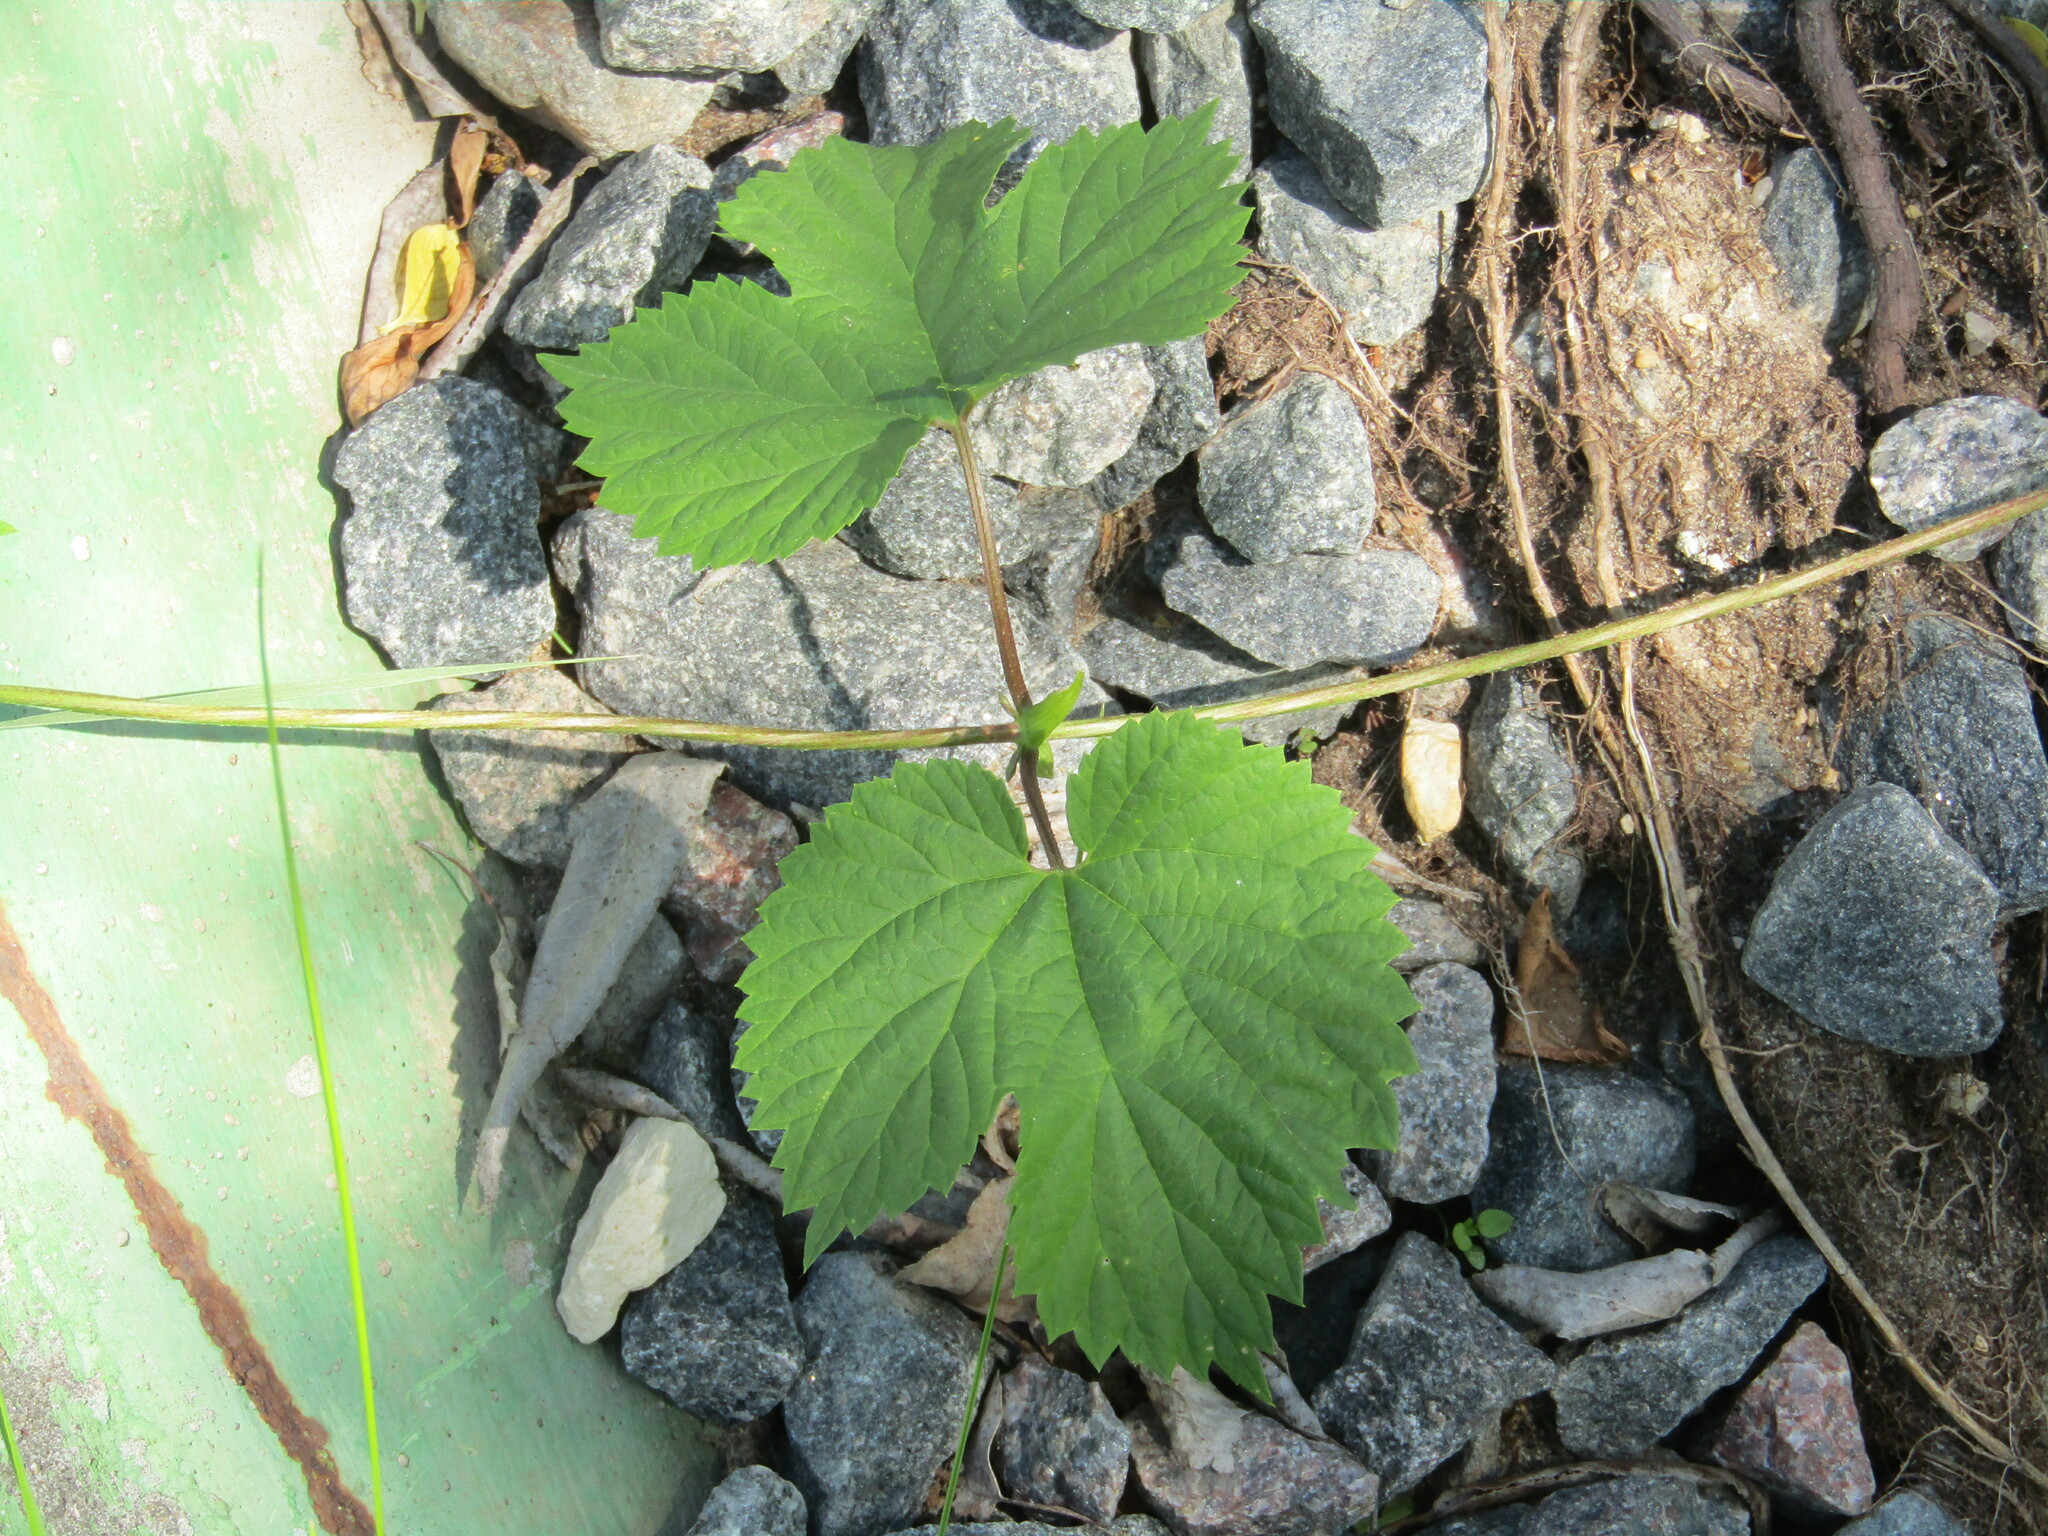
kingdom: Plantae
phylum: Tracheophyta
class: Magnoliopsida
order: Rosales
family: Cannabaceae
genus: Humulus
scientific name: Humulus lupulus
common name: Hop
